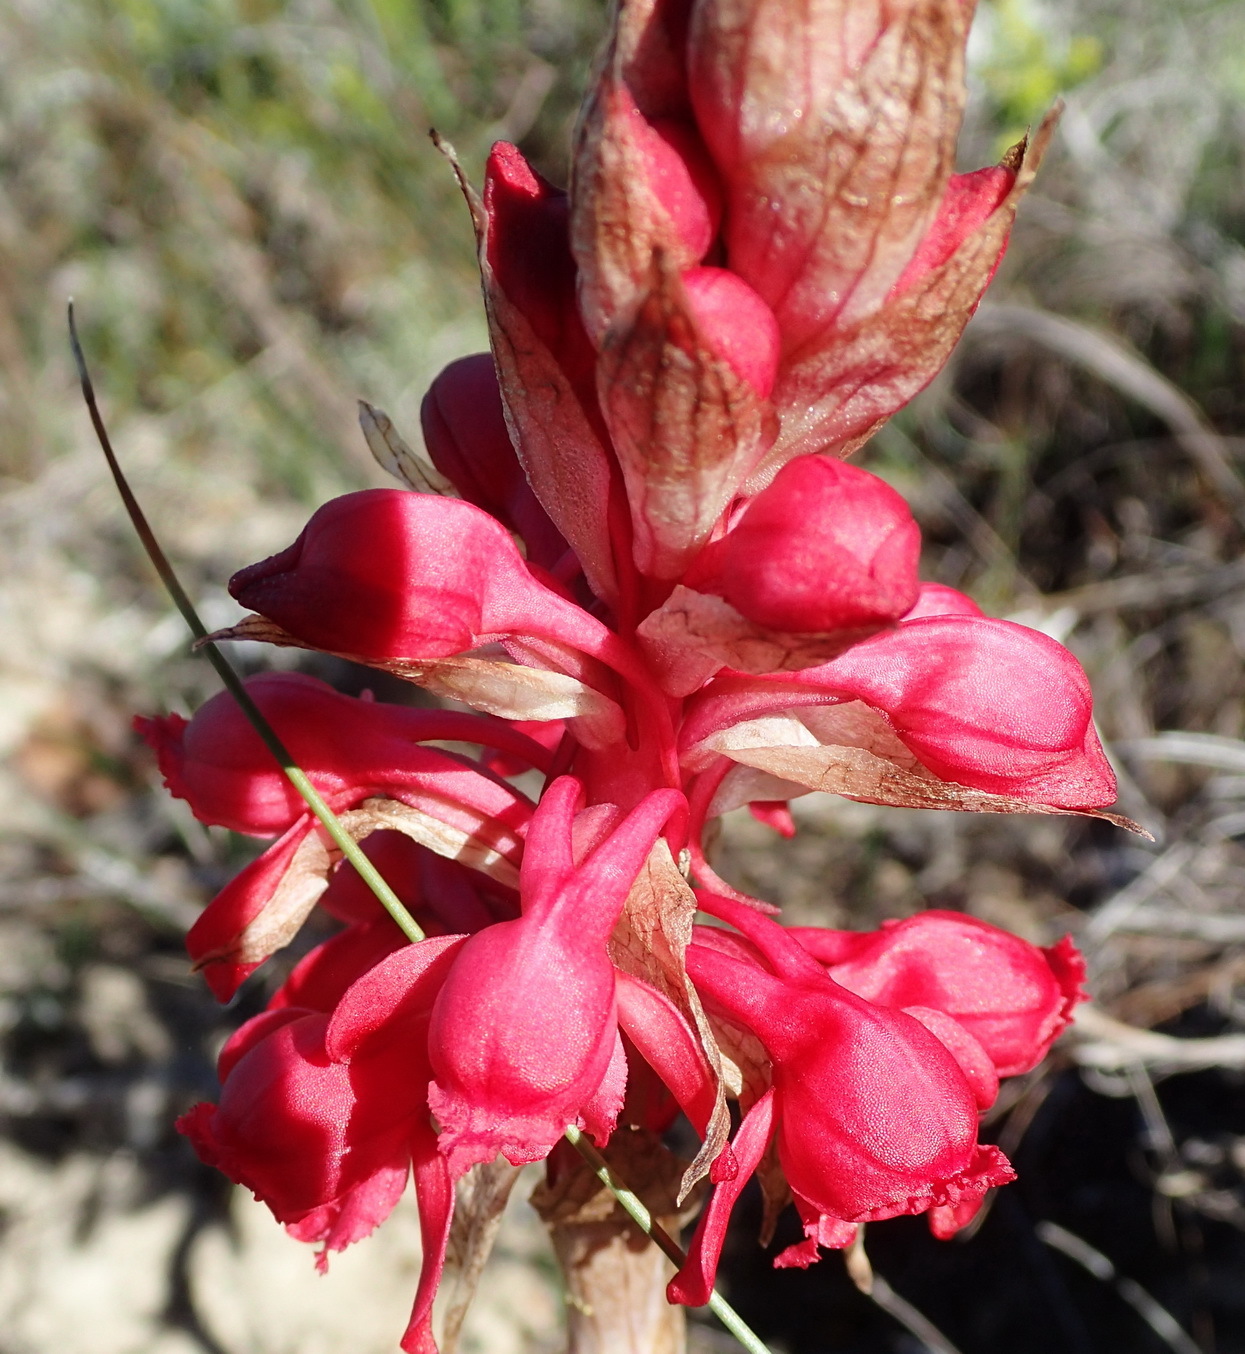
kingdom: Plantae
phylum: Tracheophyta
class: Liliopsida
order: Asparagales
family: Orchidaceae
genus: Satyrium
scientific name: Satyrium princeps
